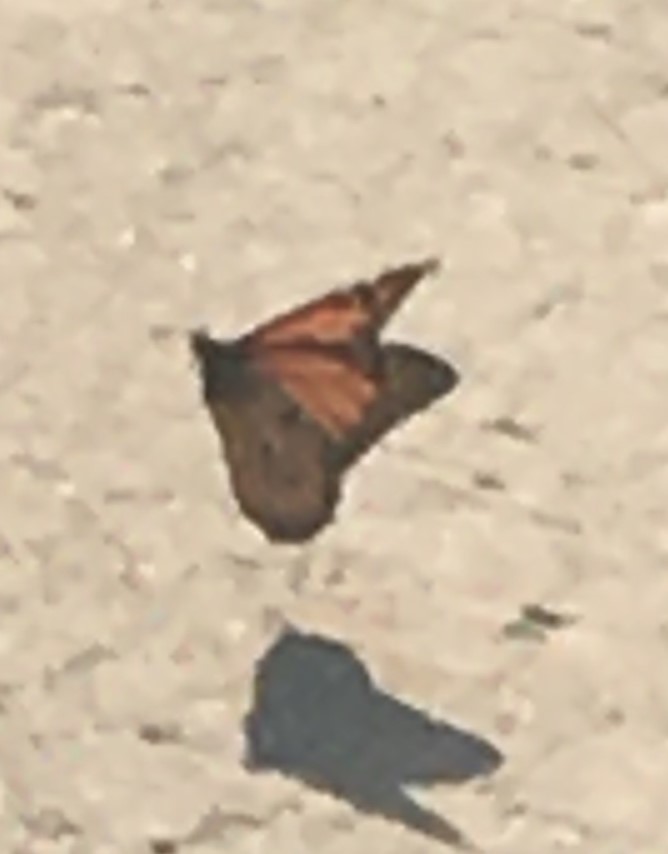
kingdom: Animalia
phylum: Arthropoda
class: Insecta
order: Lepidoptera
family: Nymphalidae
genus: Danaus
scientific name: Danaus plexippus
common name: Monarch
